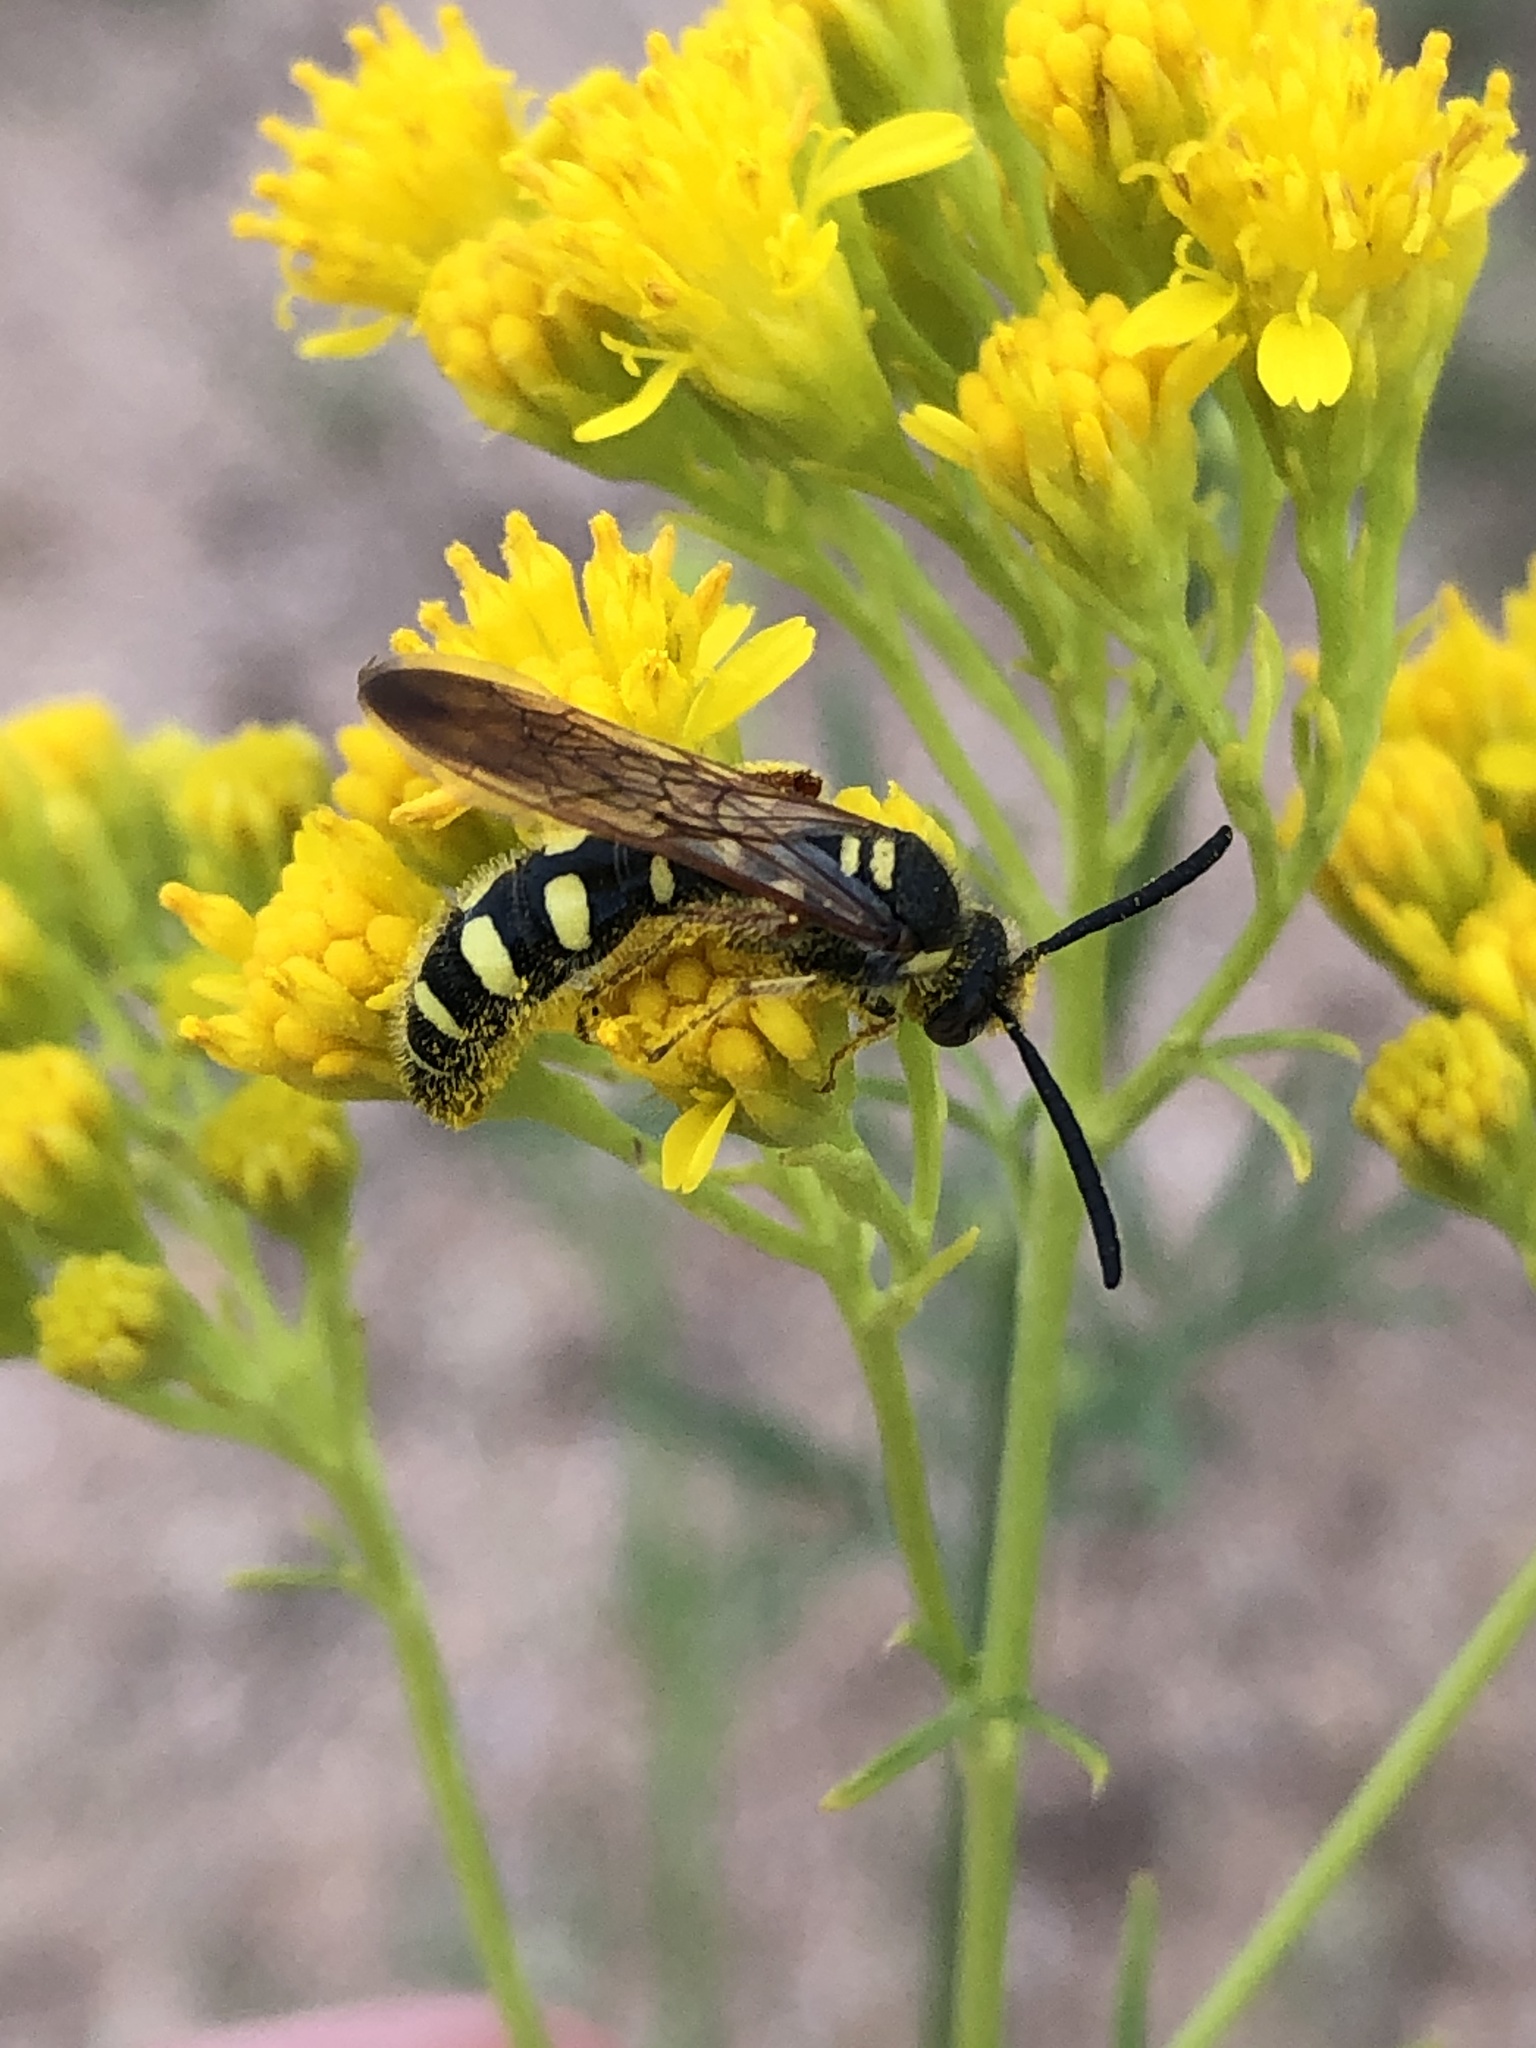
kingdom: Animalia
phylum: Arthropoda
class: Insecta
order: Hymenoptera
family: Scoliidae
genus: Colpa
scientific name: Colpa octomaculata
